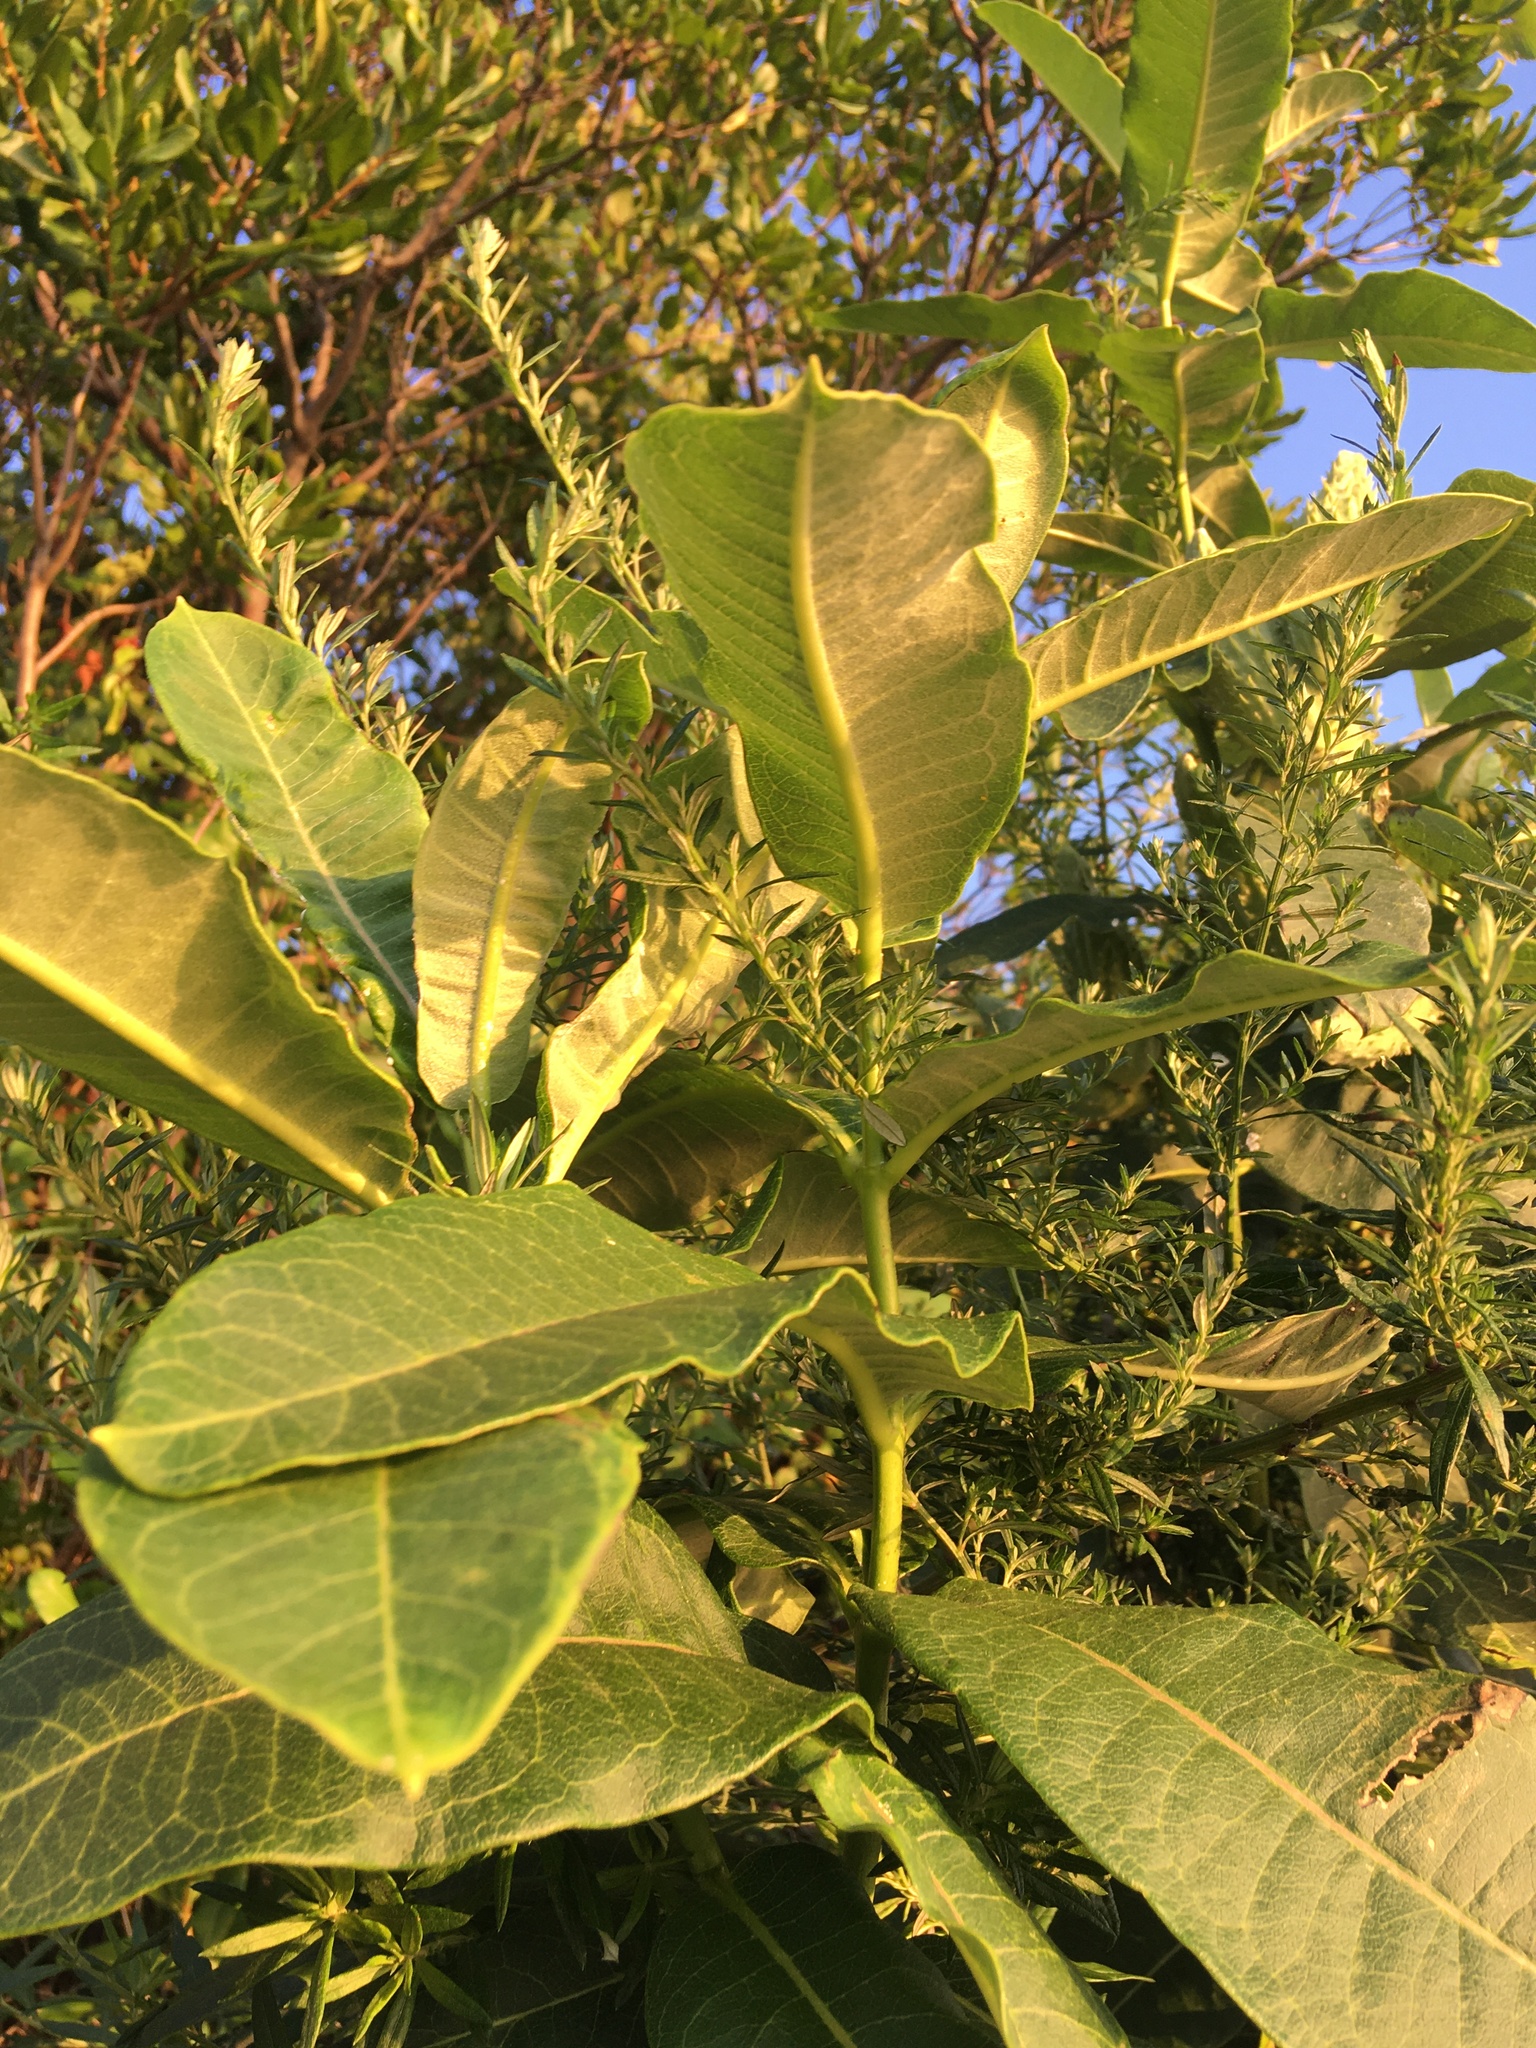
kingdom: Plantae
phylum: Tracheophyta
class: Magnoliopsida
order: Gentianales
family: Apocynaceae
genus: Asclepias
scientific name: Asclepias syriaca
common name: Common milkweed
